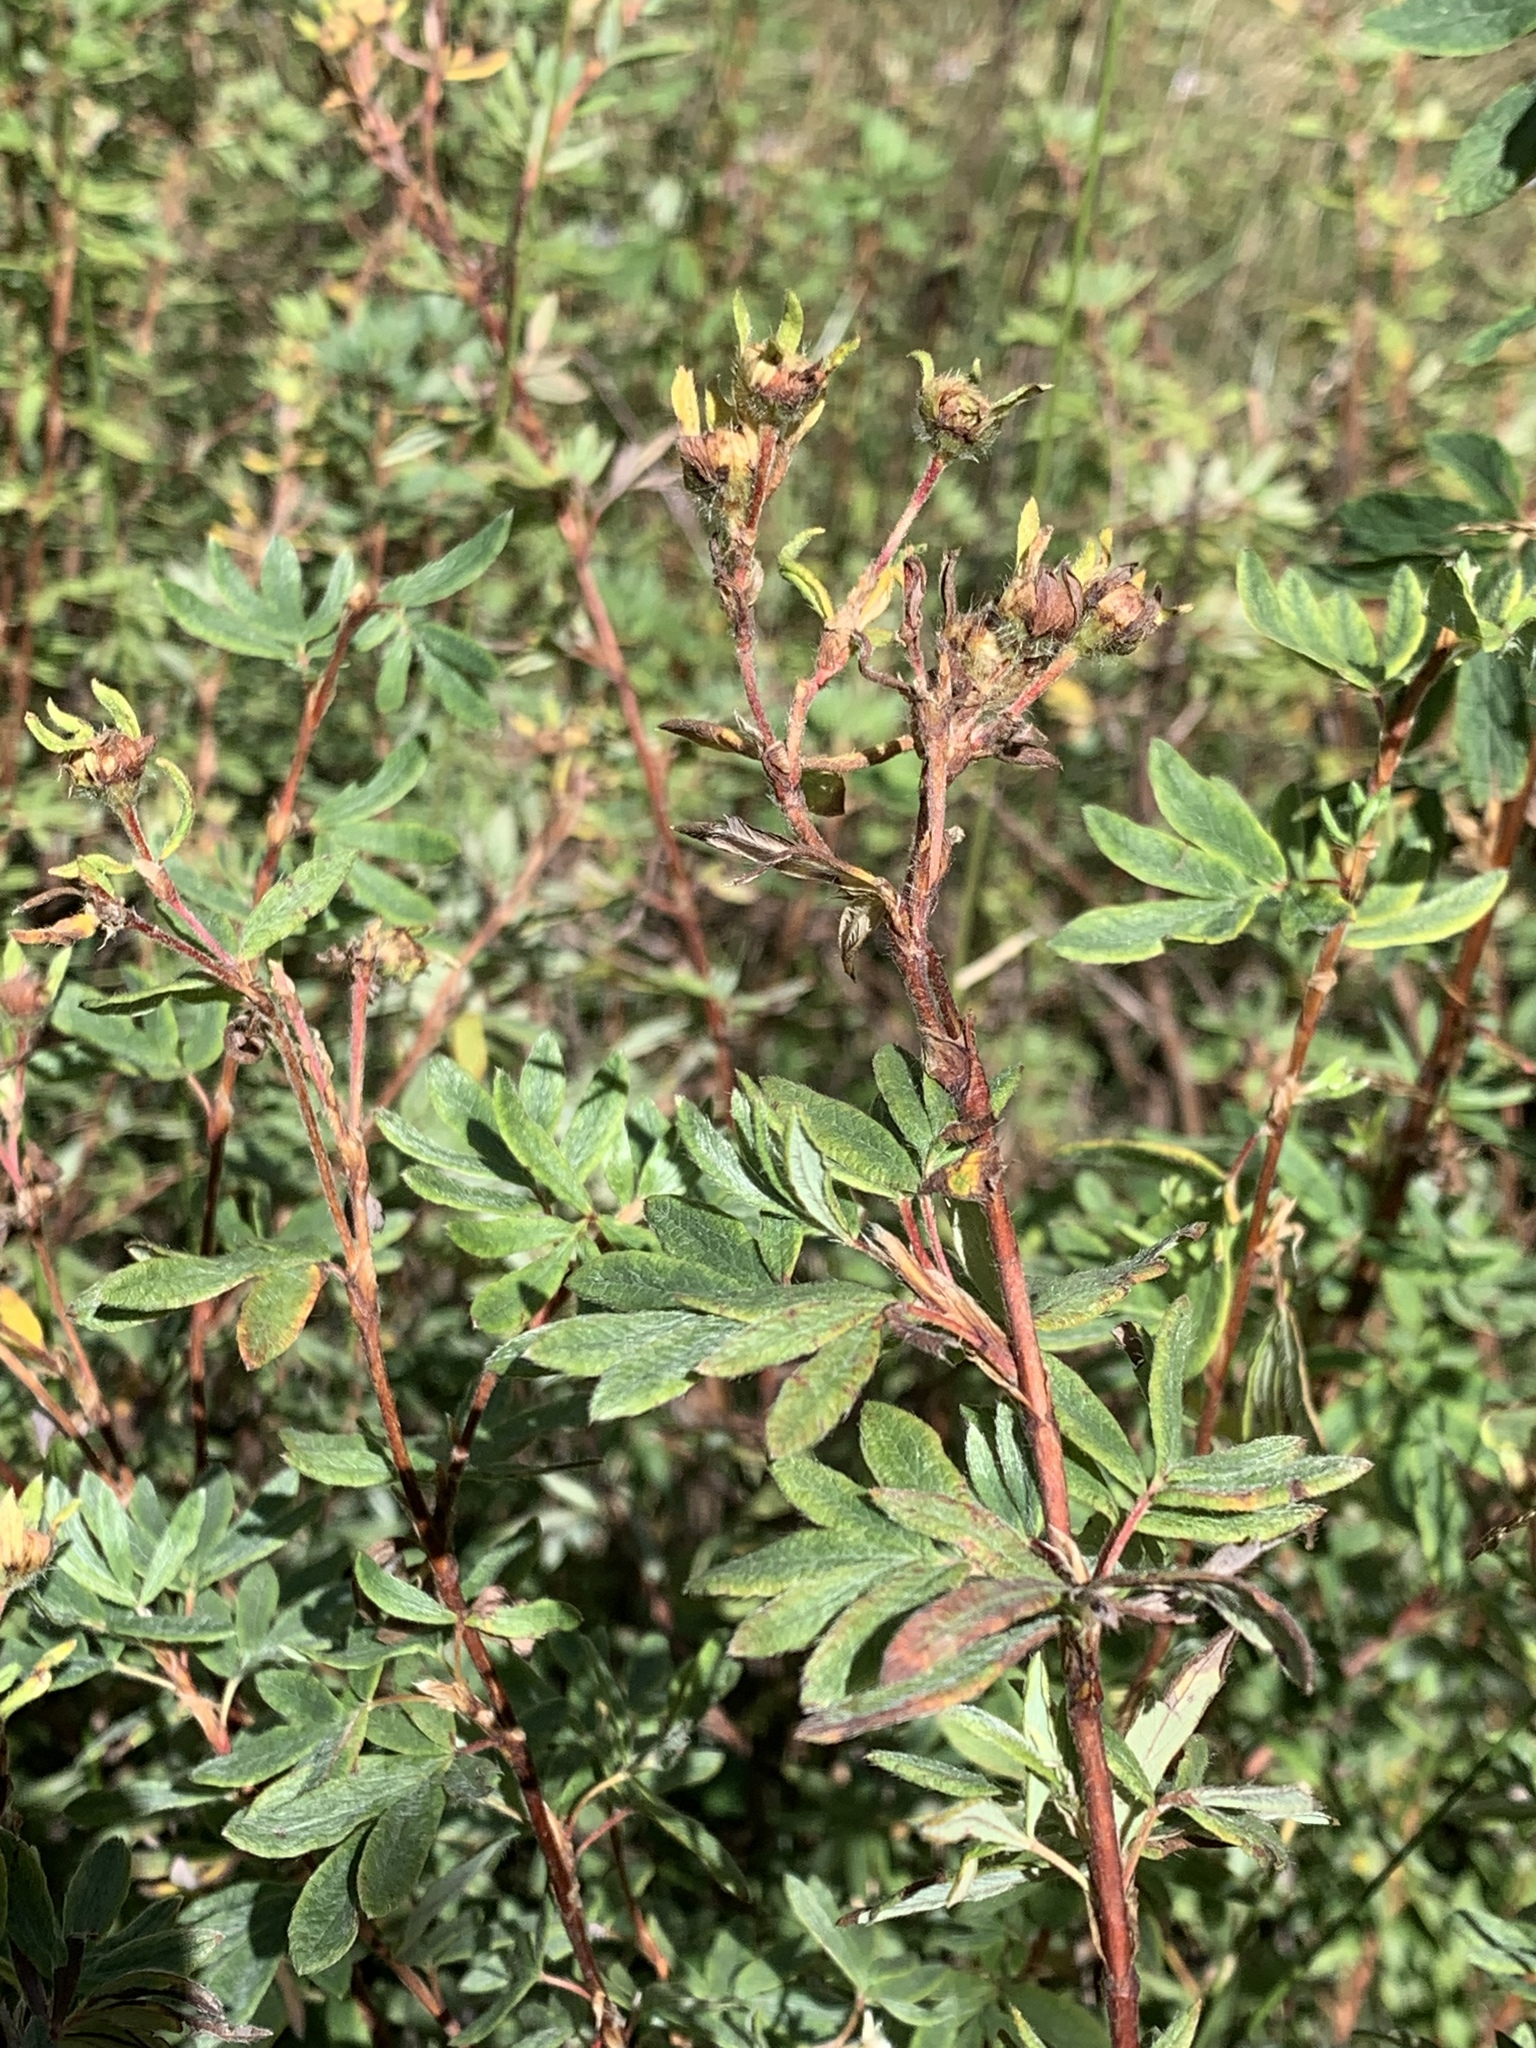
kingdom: Plantae
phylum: Tracheophyta
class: Magnoliopsida
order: Rosales
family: Rosaceae
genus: Dasiphora
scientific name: Dasiphora fruticosa
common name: Shrubby cinquefoil
